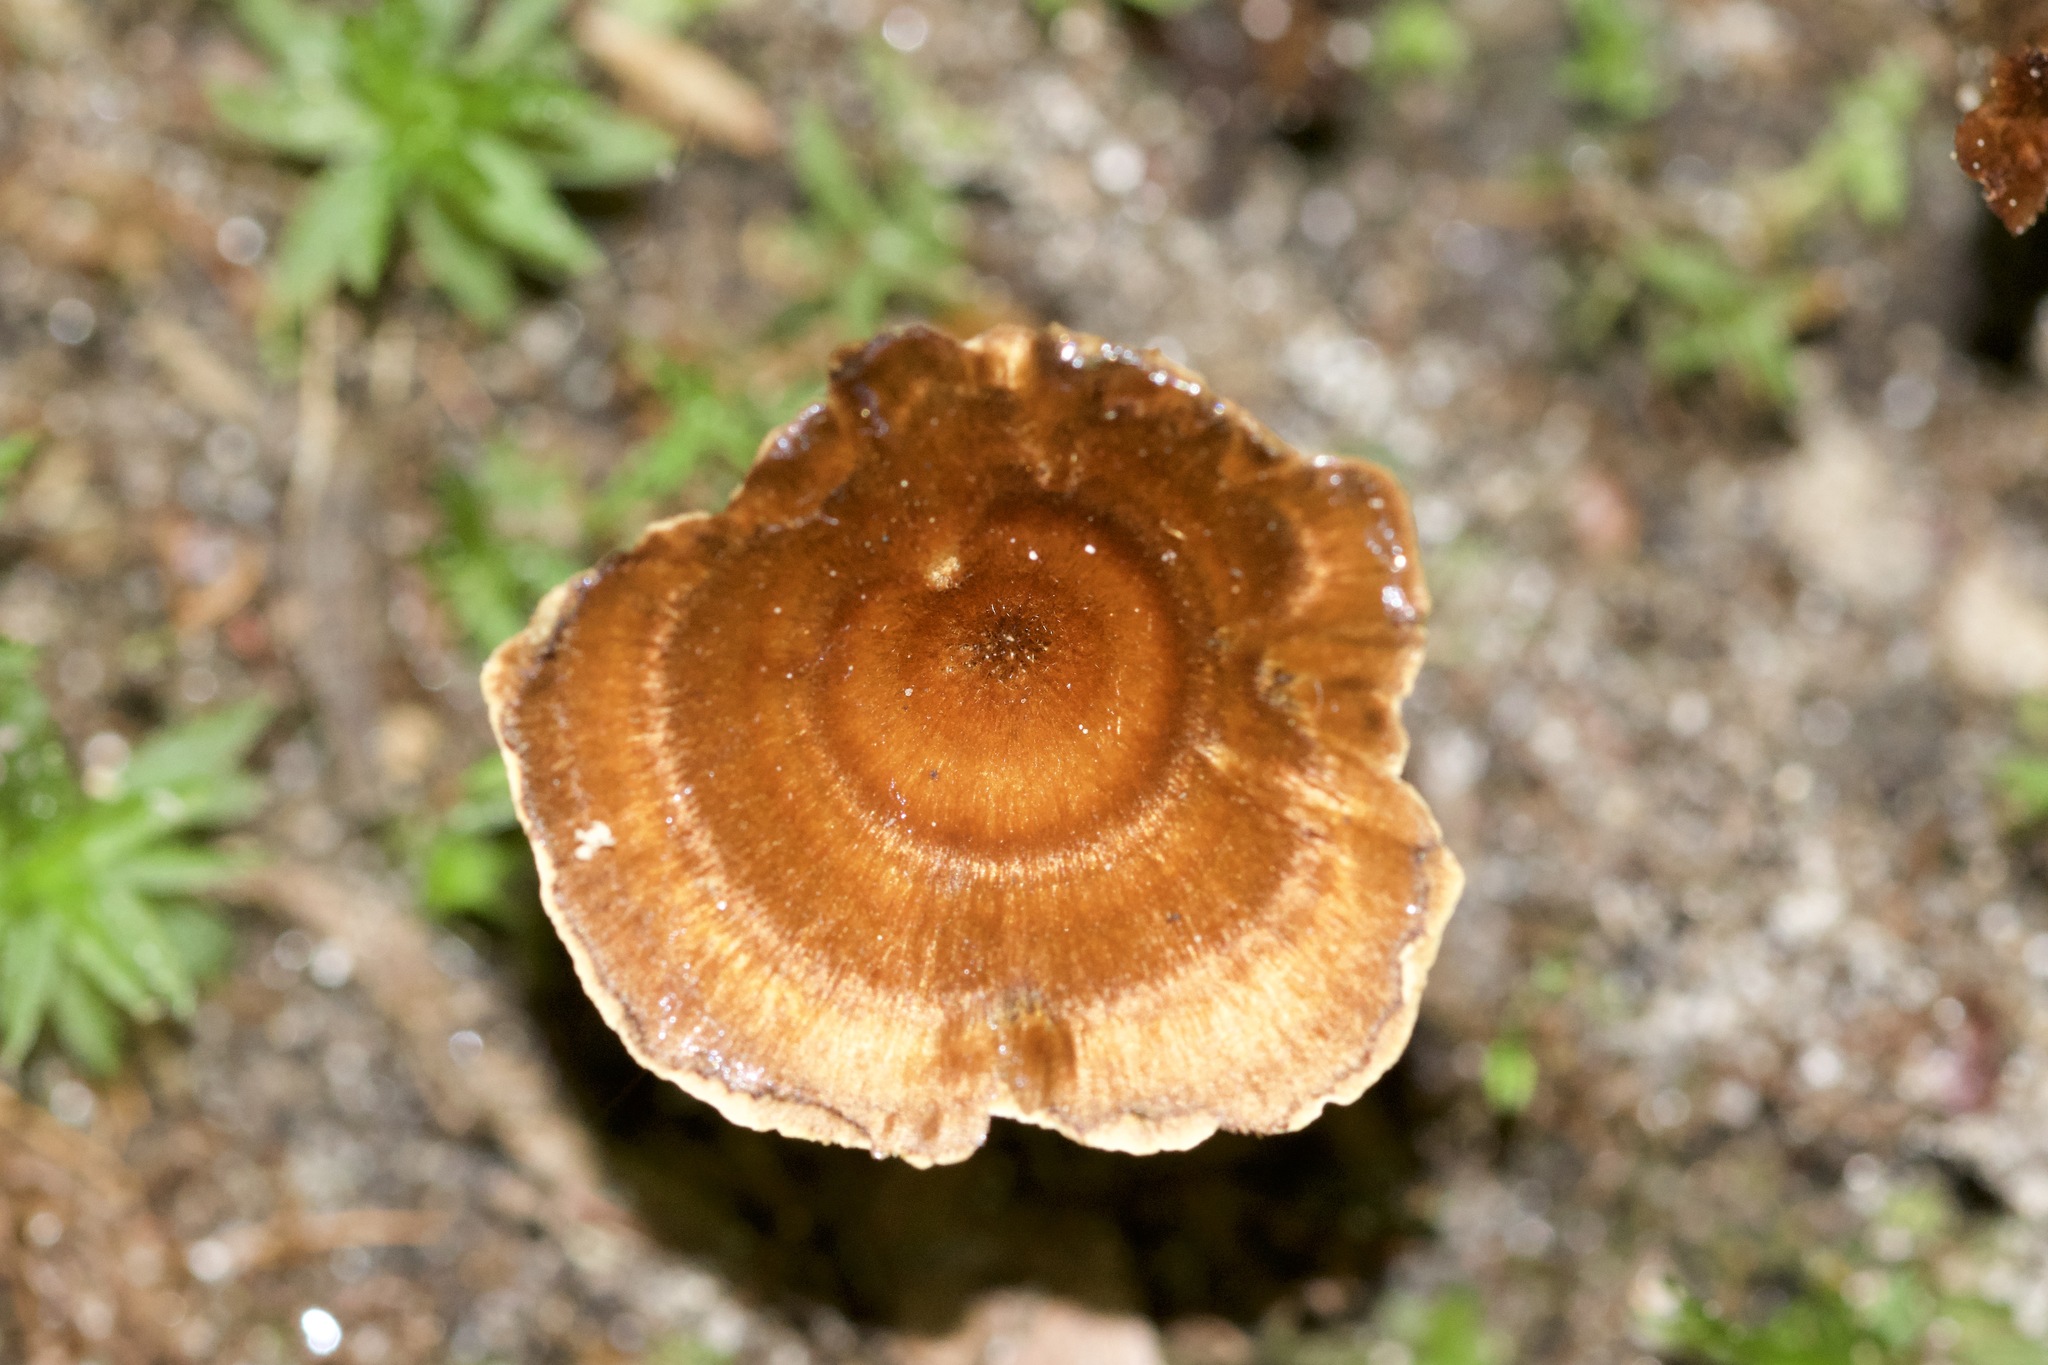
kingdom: Fungi
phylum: Basidiomycota
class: Agaricomycetes
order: Hymenochaetales
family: Hymenochaetaceae
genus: Coltricia
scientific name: Coltricia cinnamomea
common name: Shiny cinnamon polypore
